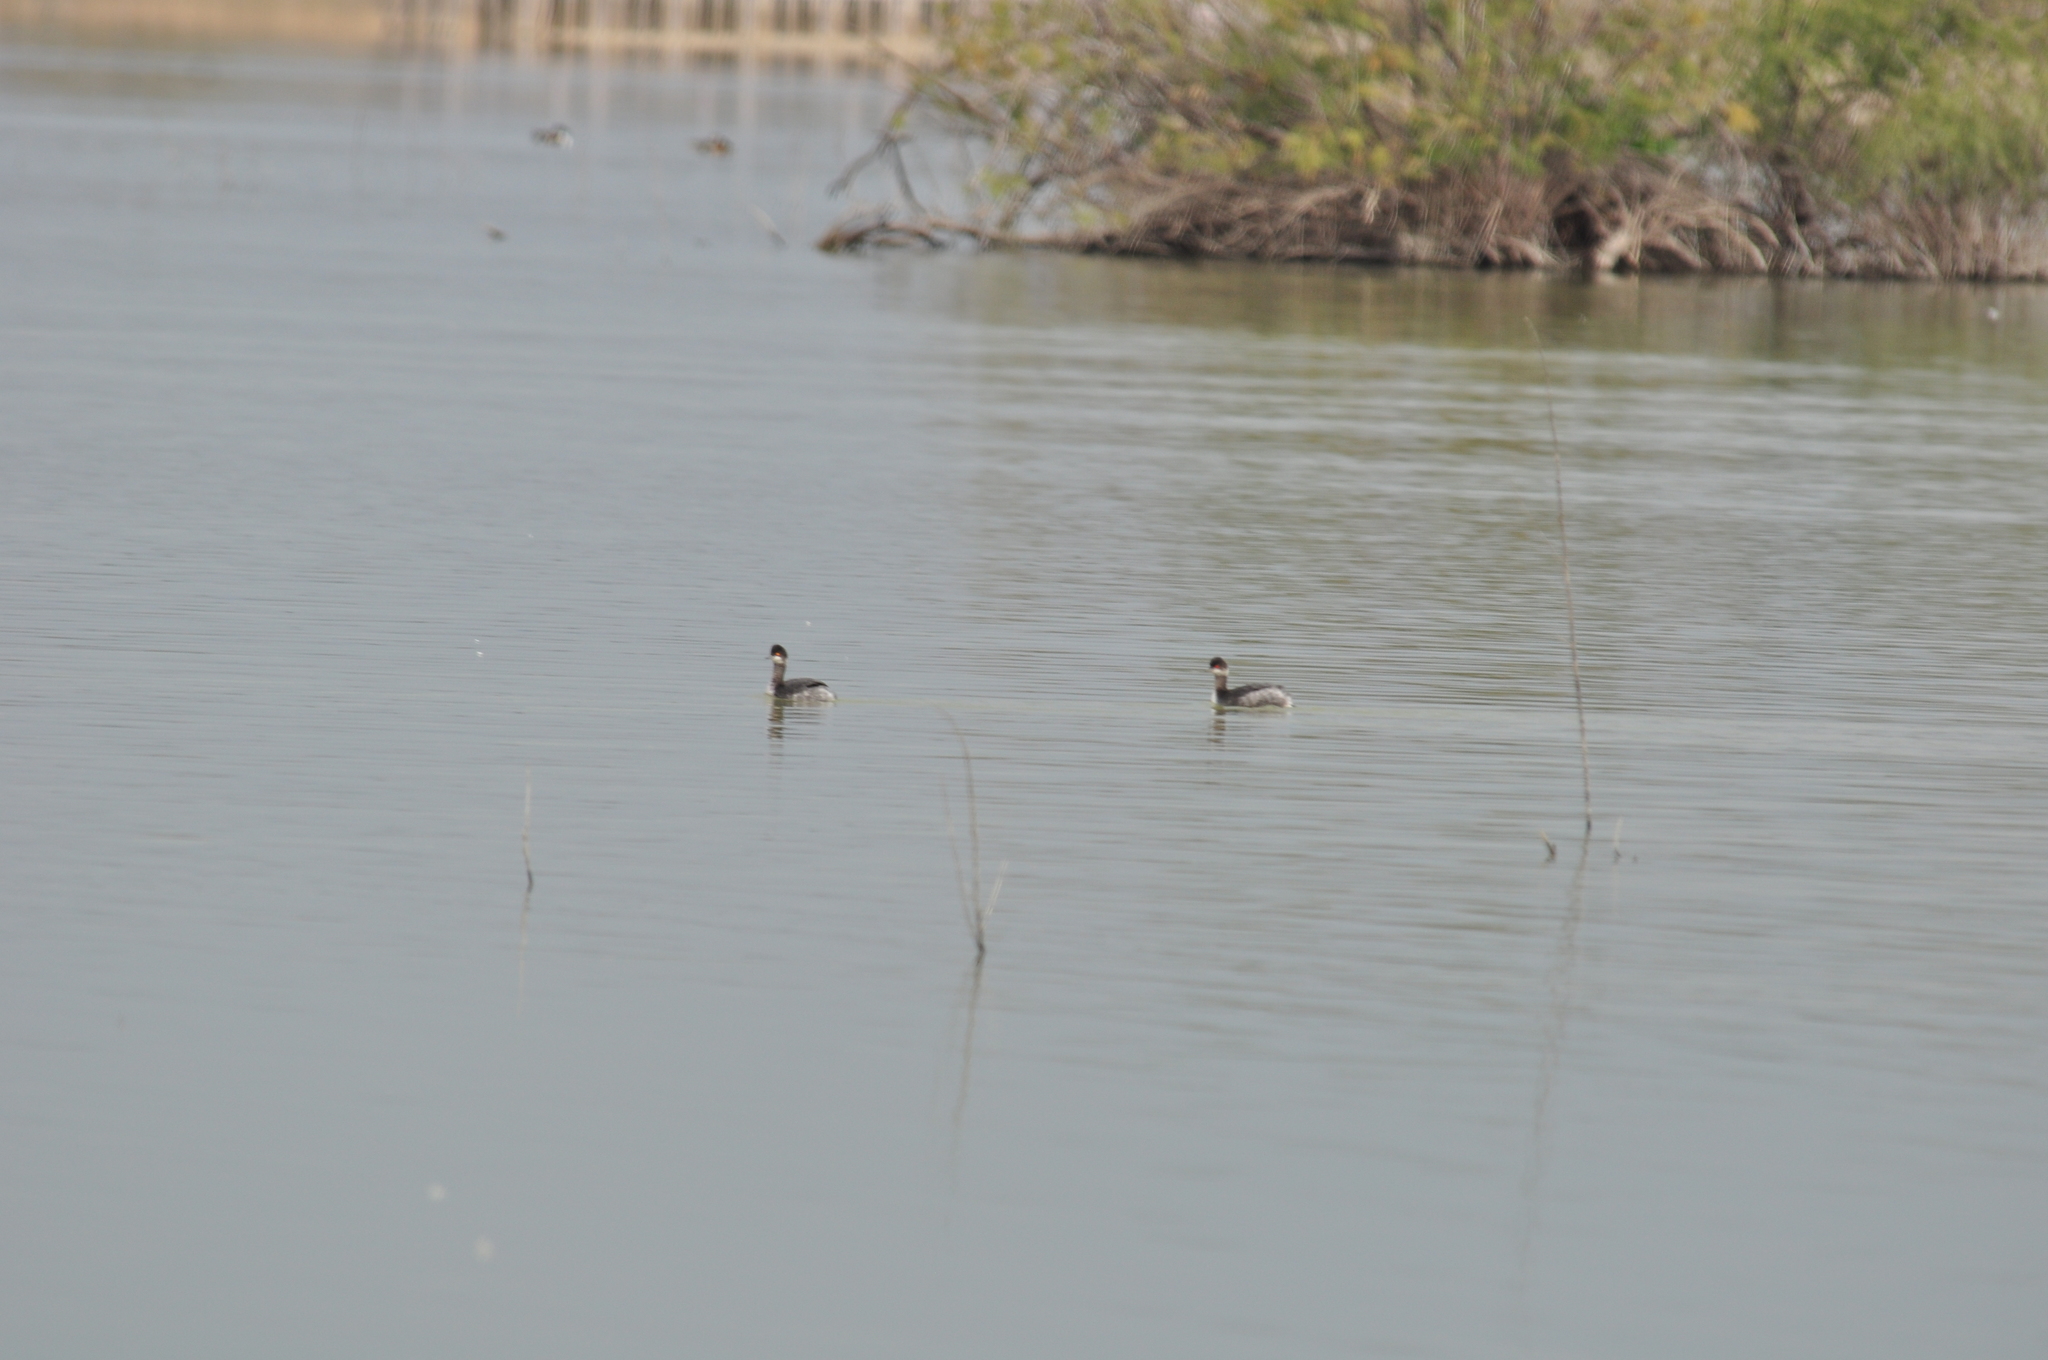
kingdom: Animalia
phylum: Chordata
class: Aves
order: Podicipediformes
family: Podicipedidae
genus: Podiceps
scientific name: Podiceps nigricollis
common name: Black-necked grebe
